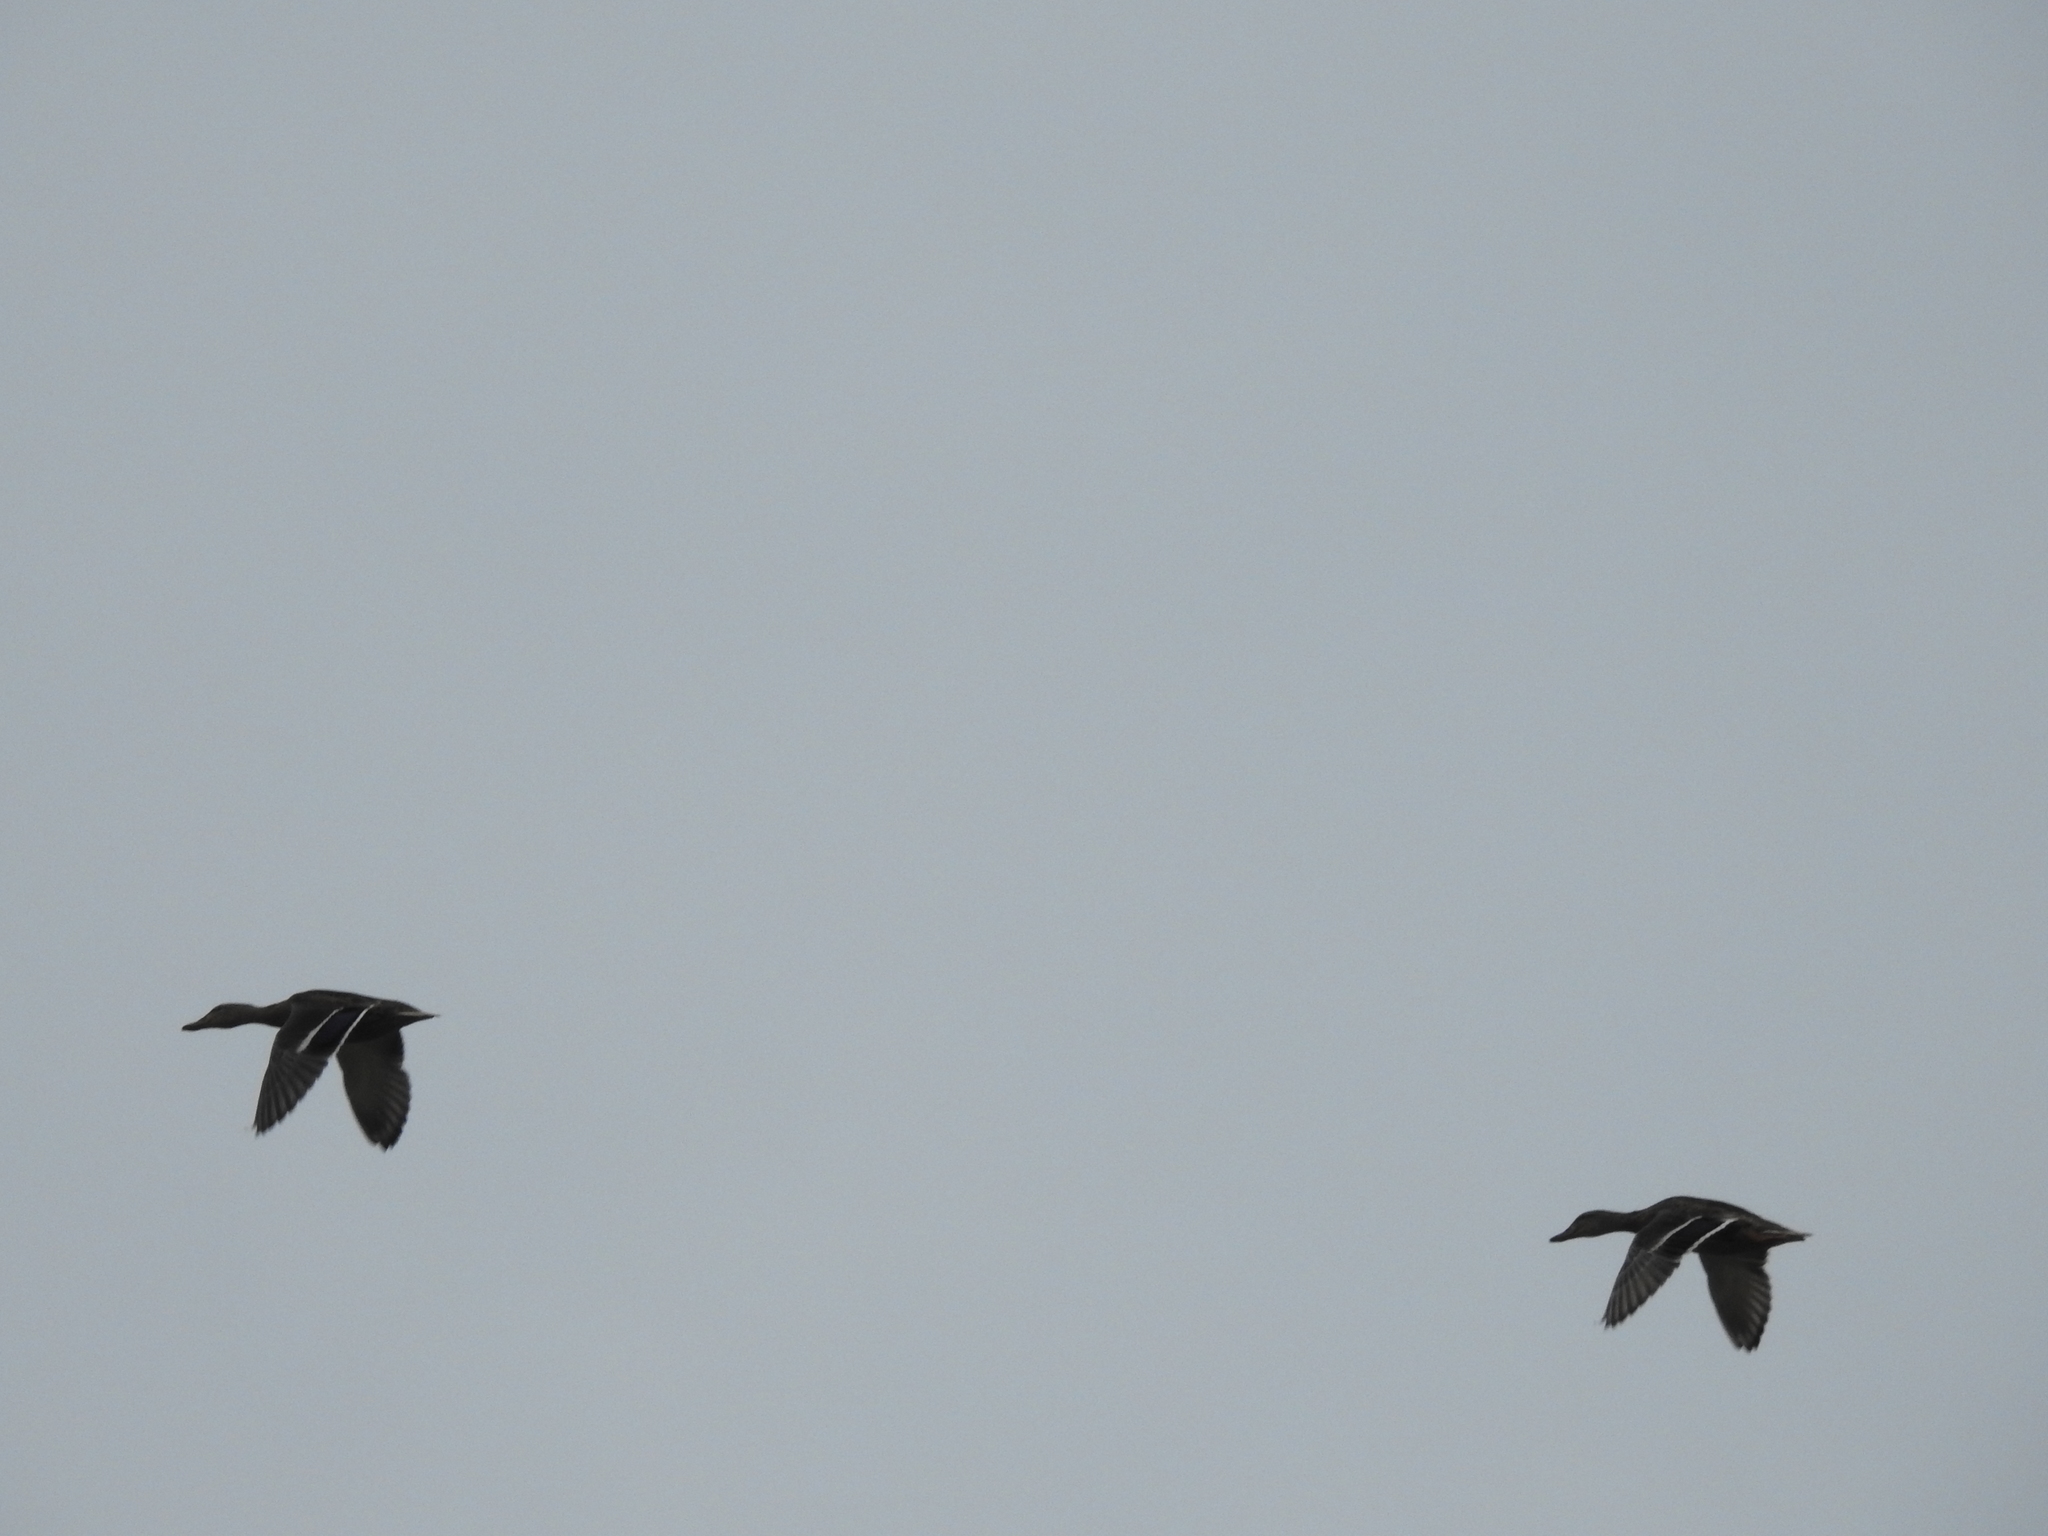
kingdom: Animalia
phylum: Chordata
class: Aves
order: Anseriformes
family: Anatidae
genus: Anas
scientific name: Anas platyrhynchos
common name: Mallard
